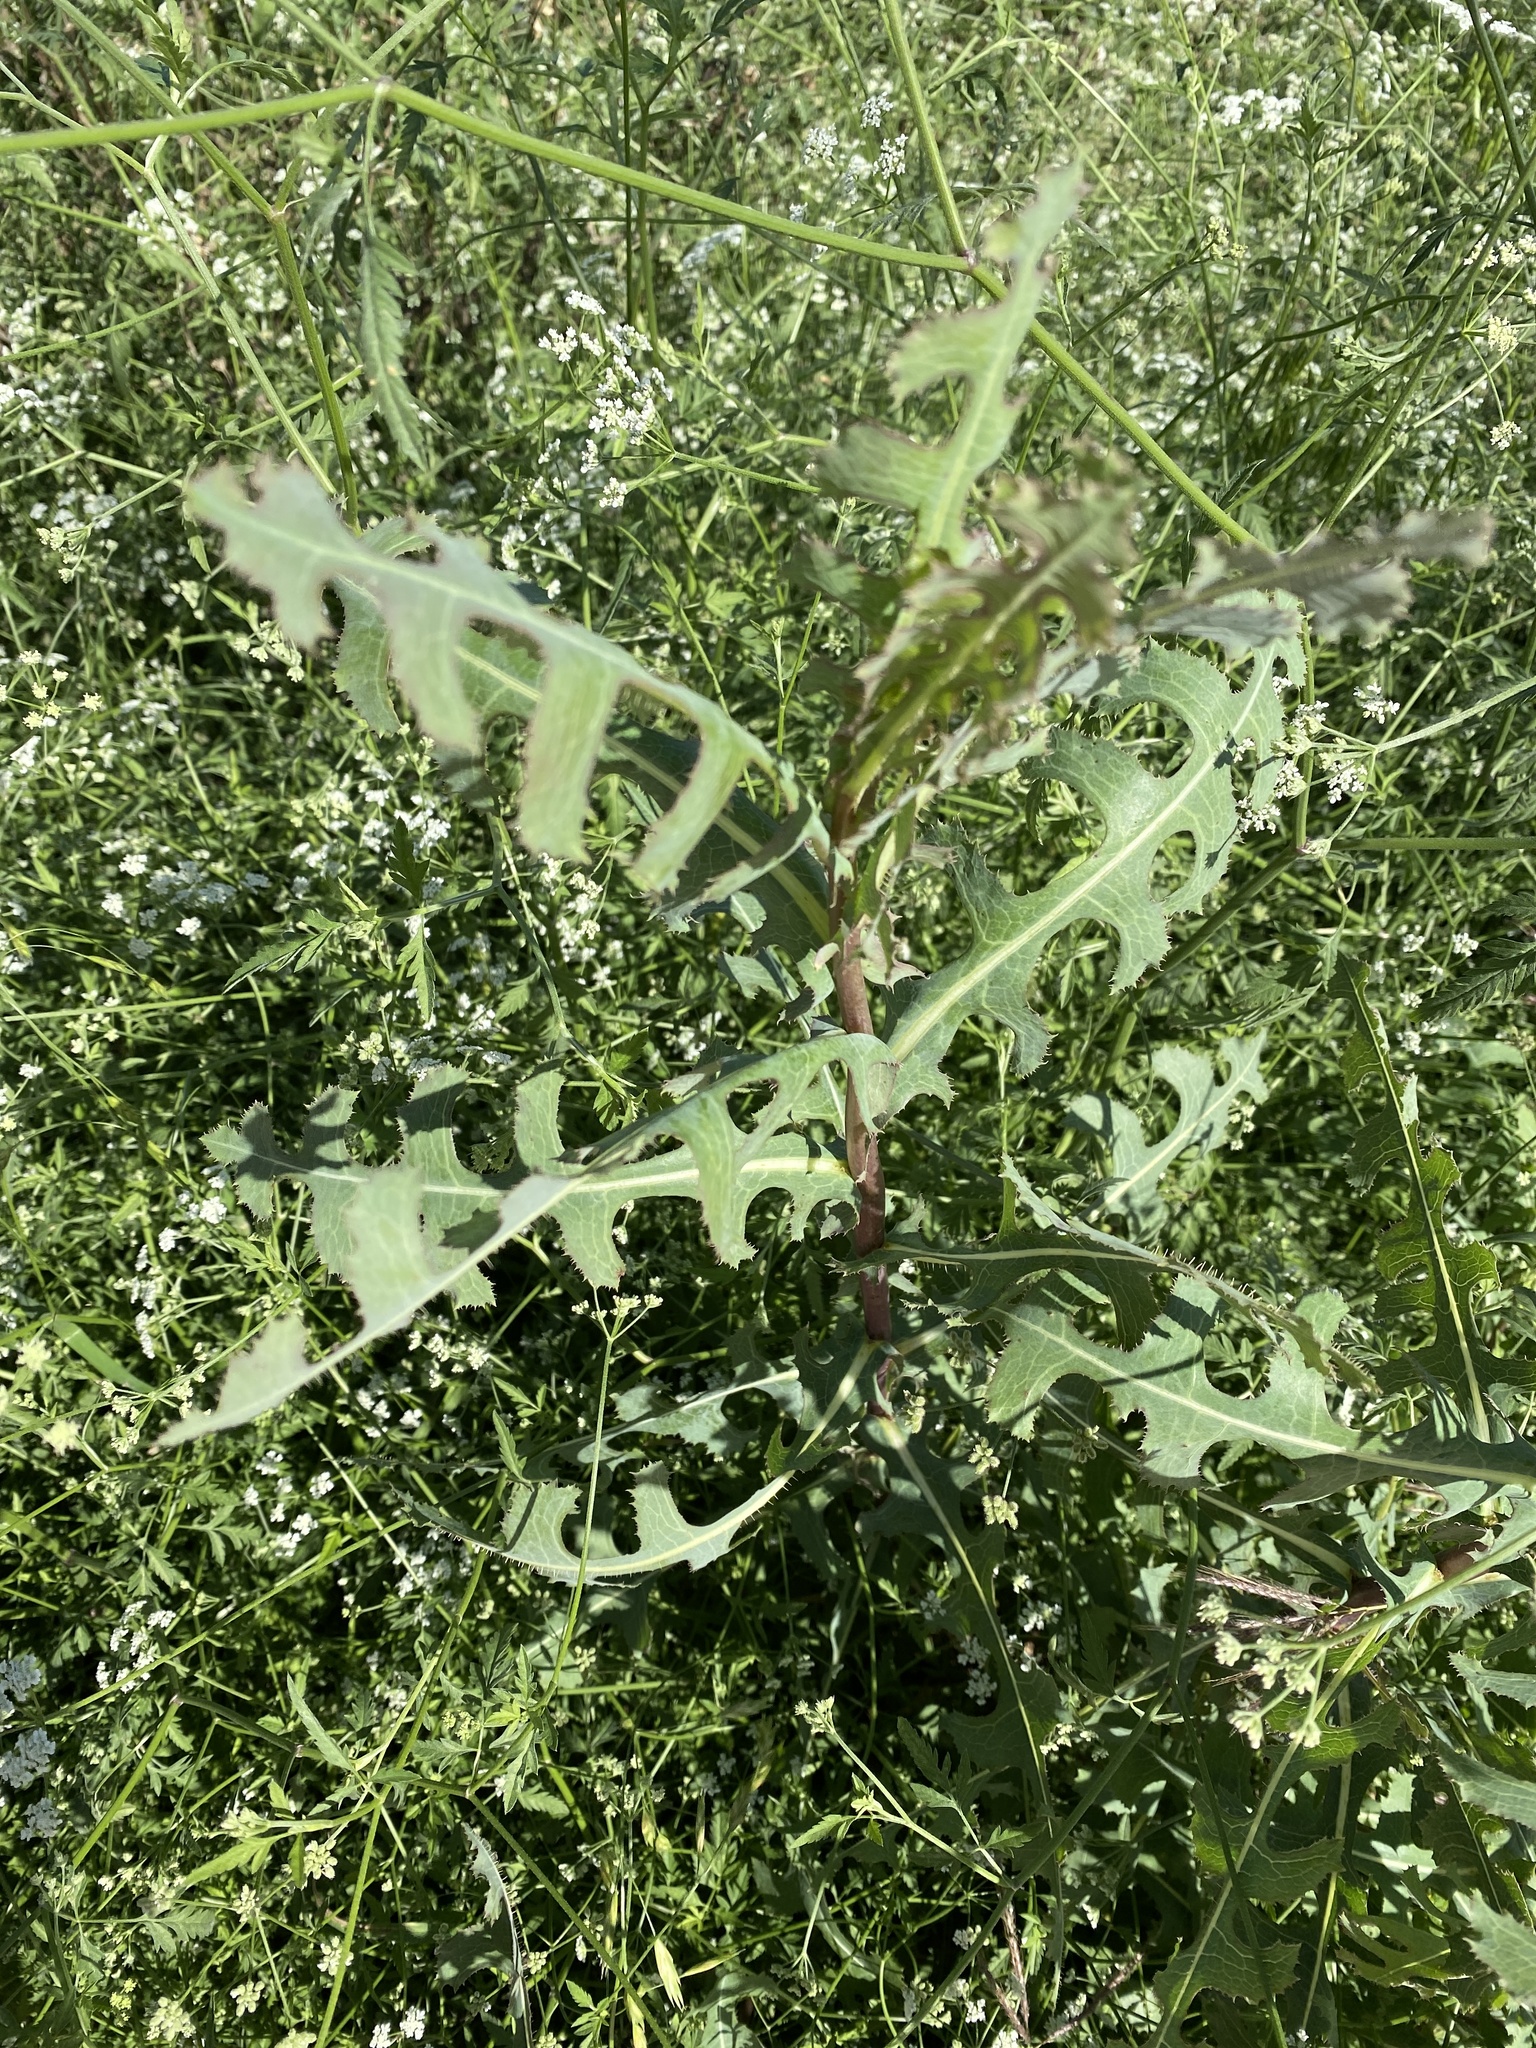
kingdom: Plantae
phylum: Tracheophyta
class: Magnoliopsida
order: Asterales
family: Asteraceae
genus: Lactuca
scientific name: Lactuca serriola
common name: Prickly lettuce
